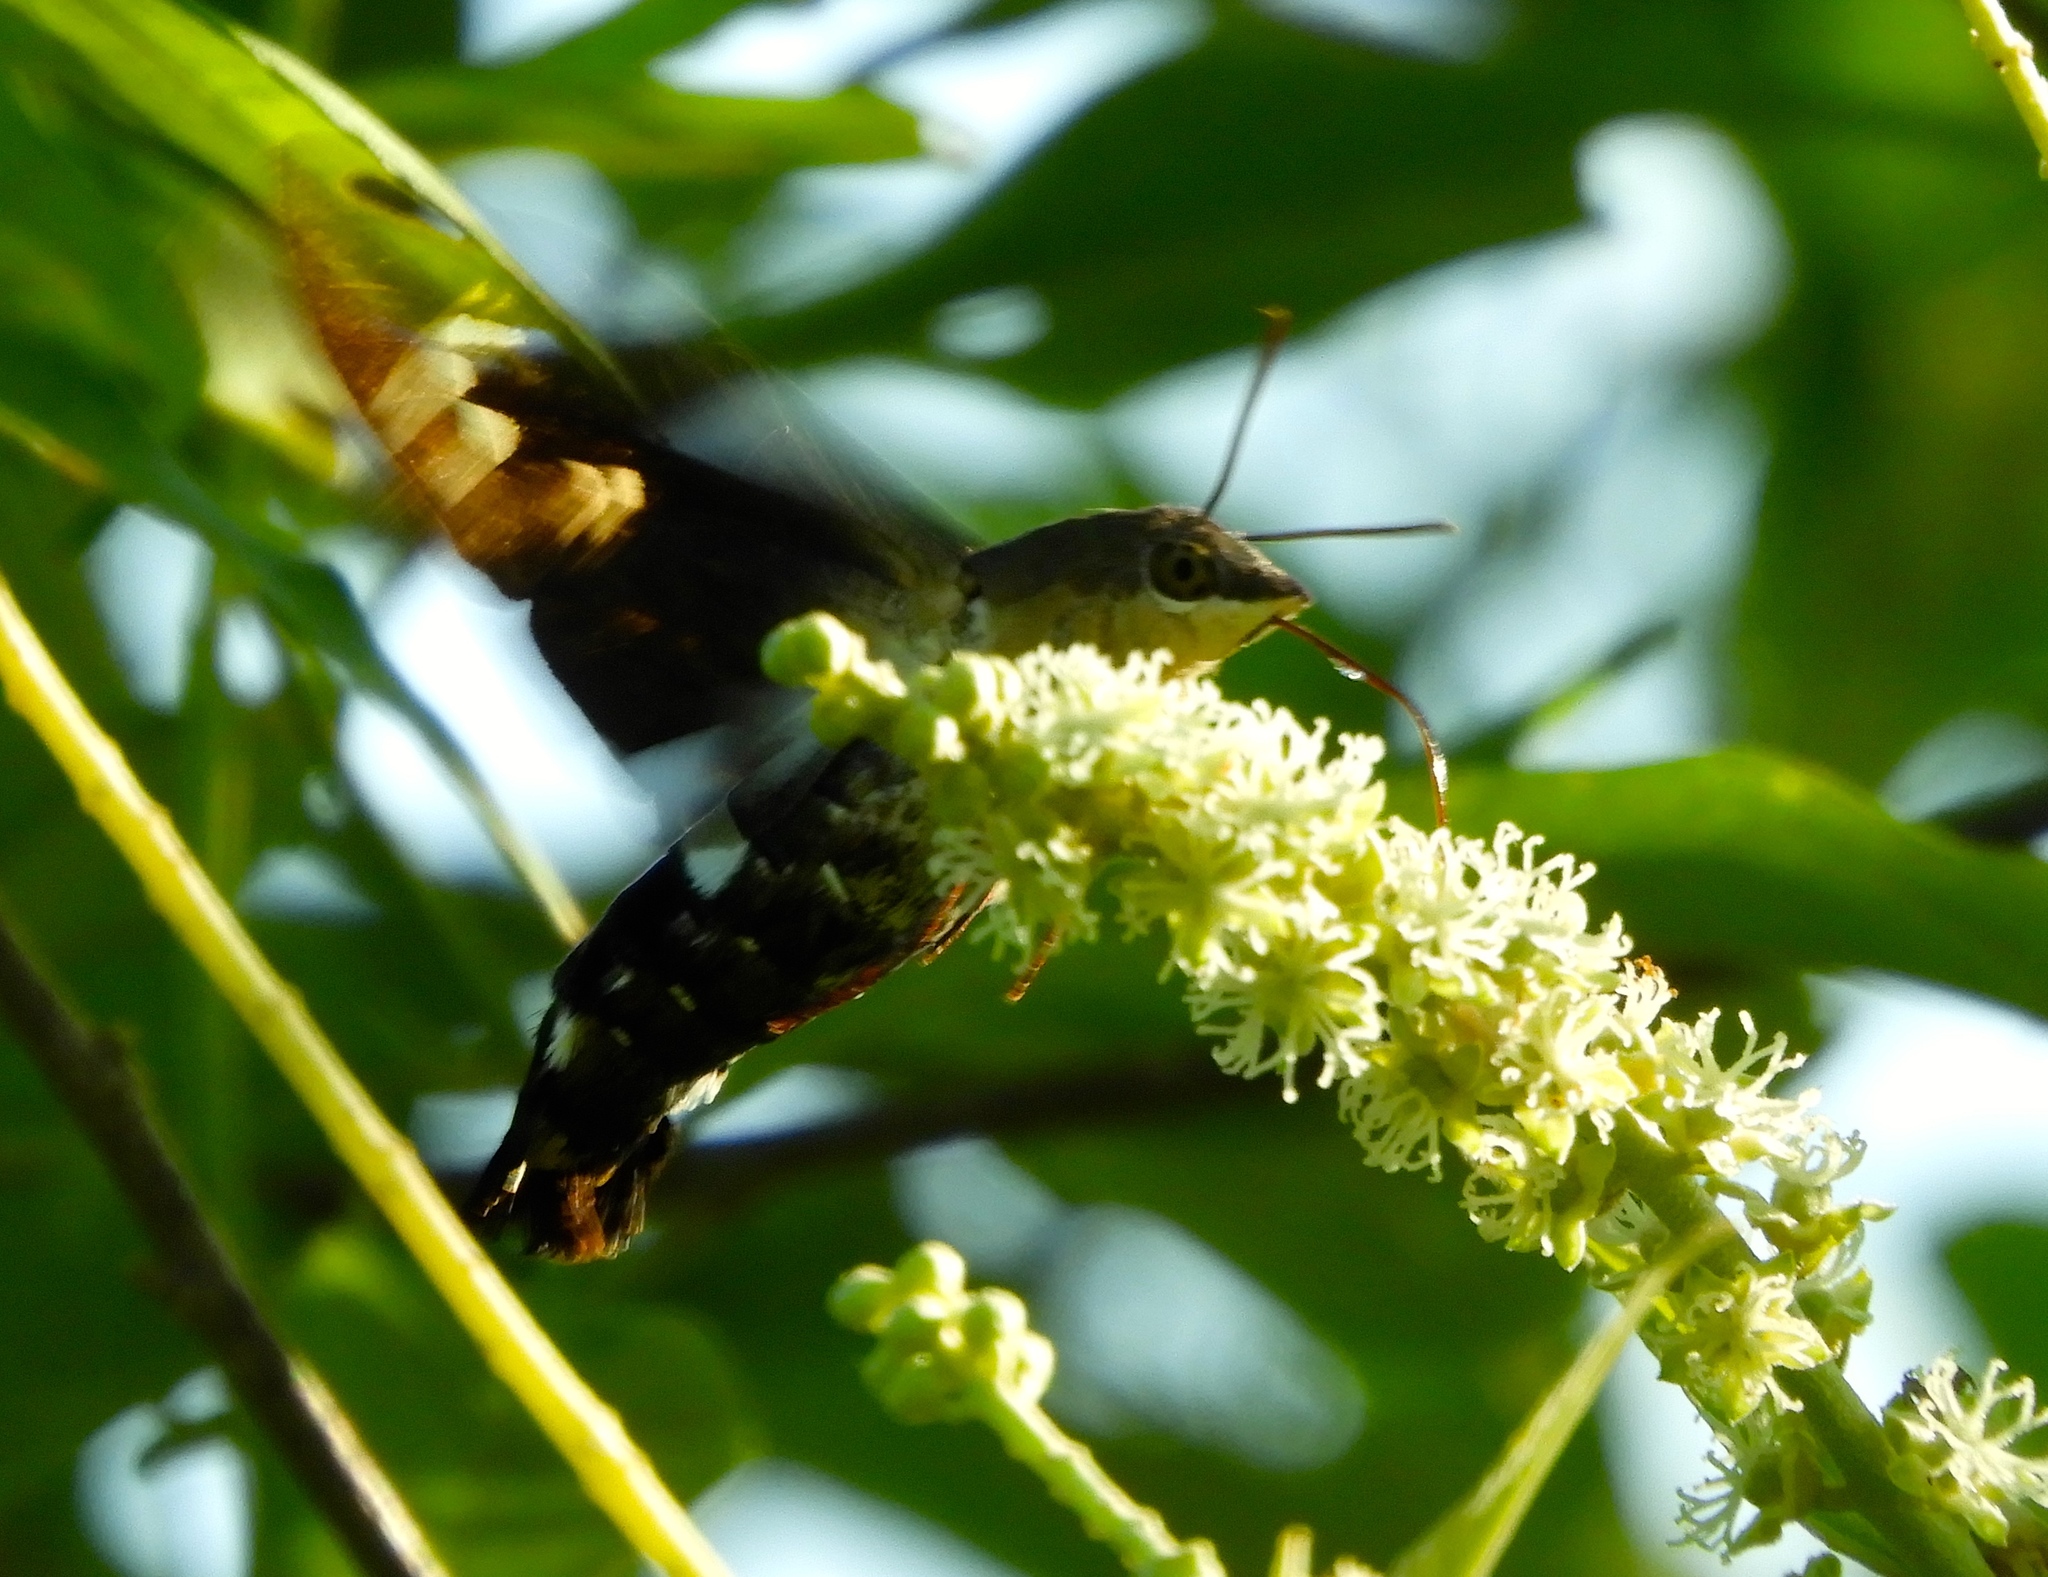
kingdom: Animalia
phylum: Arthropoda
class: Insecta
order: Lepidoptera
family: Sphingidae
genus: Aellopos
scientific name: Aellopos clavipes
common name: Clavipes sphinx
